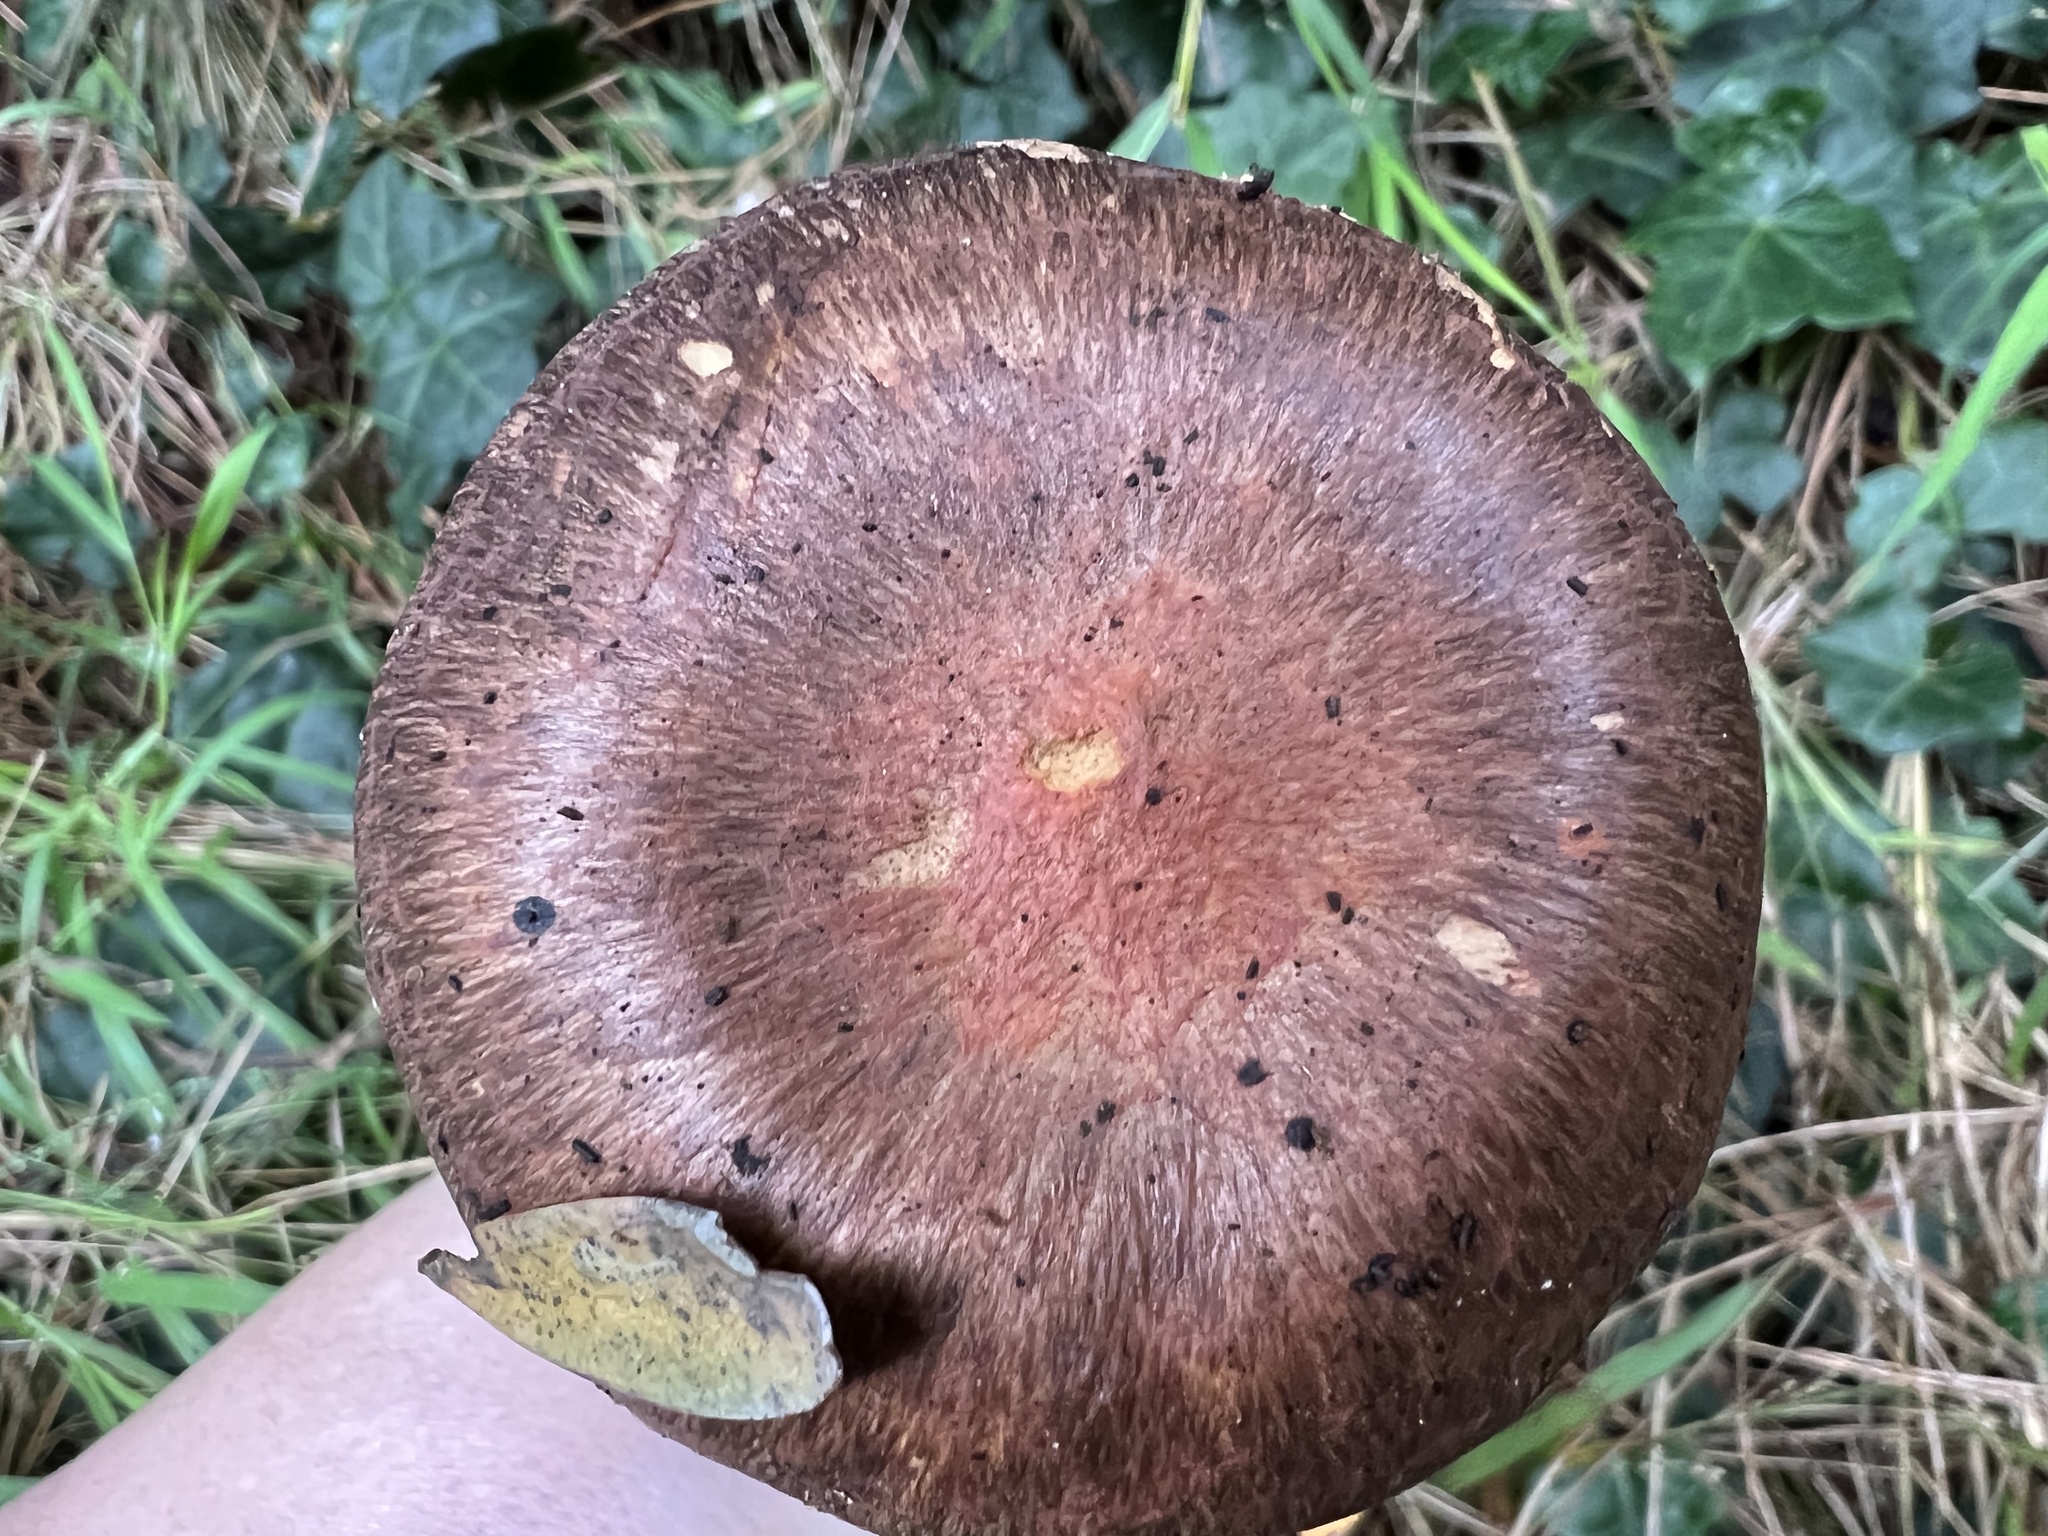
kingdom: Fungi
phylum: Basidiomycota
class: Agaricomycetes
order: Boletales
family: Gomphidiaceae
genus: Chroogomphus
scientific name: Chroogomphus vinicolor
